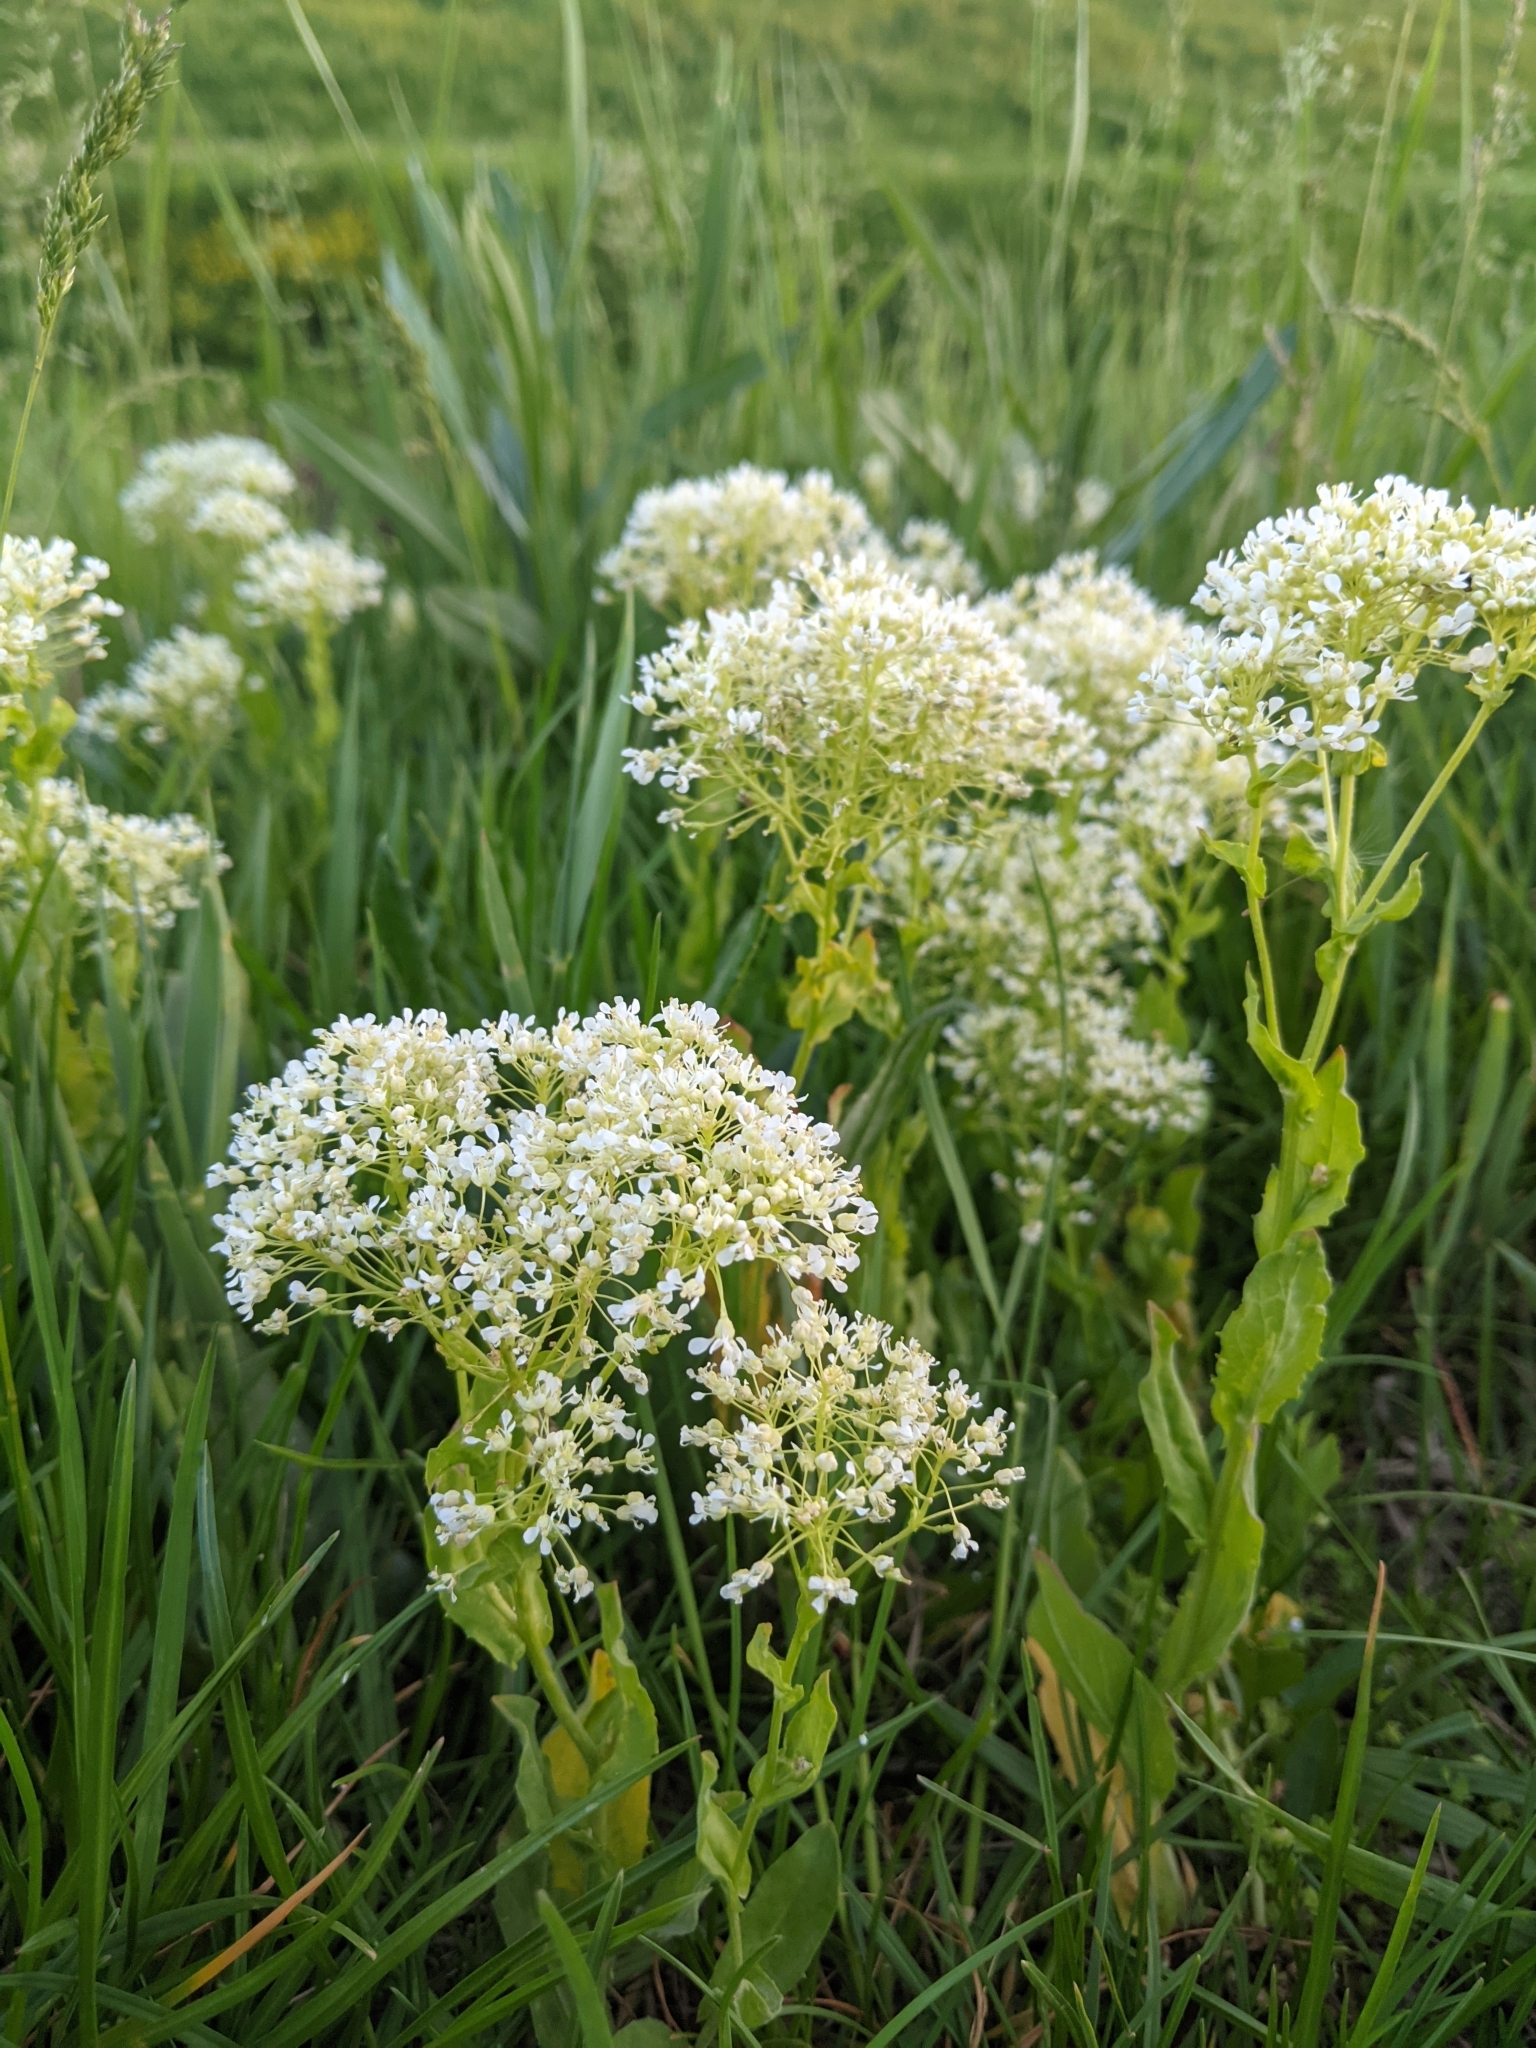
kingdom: Plantae
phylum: Tracheophyta
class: Magnoliopsida
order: Brassicales
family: Brassicaceae
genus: Lepidium
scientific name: Lepidium draba
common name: Hoary cress
